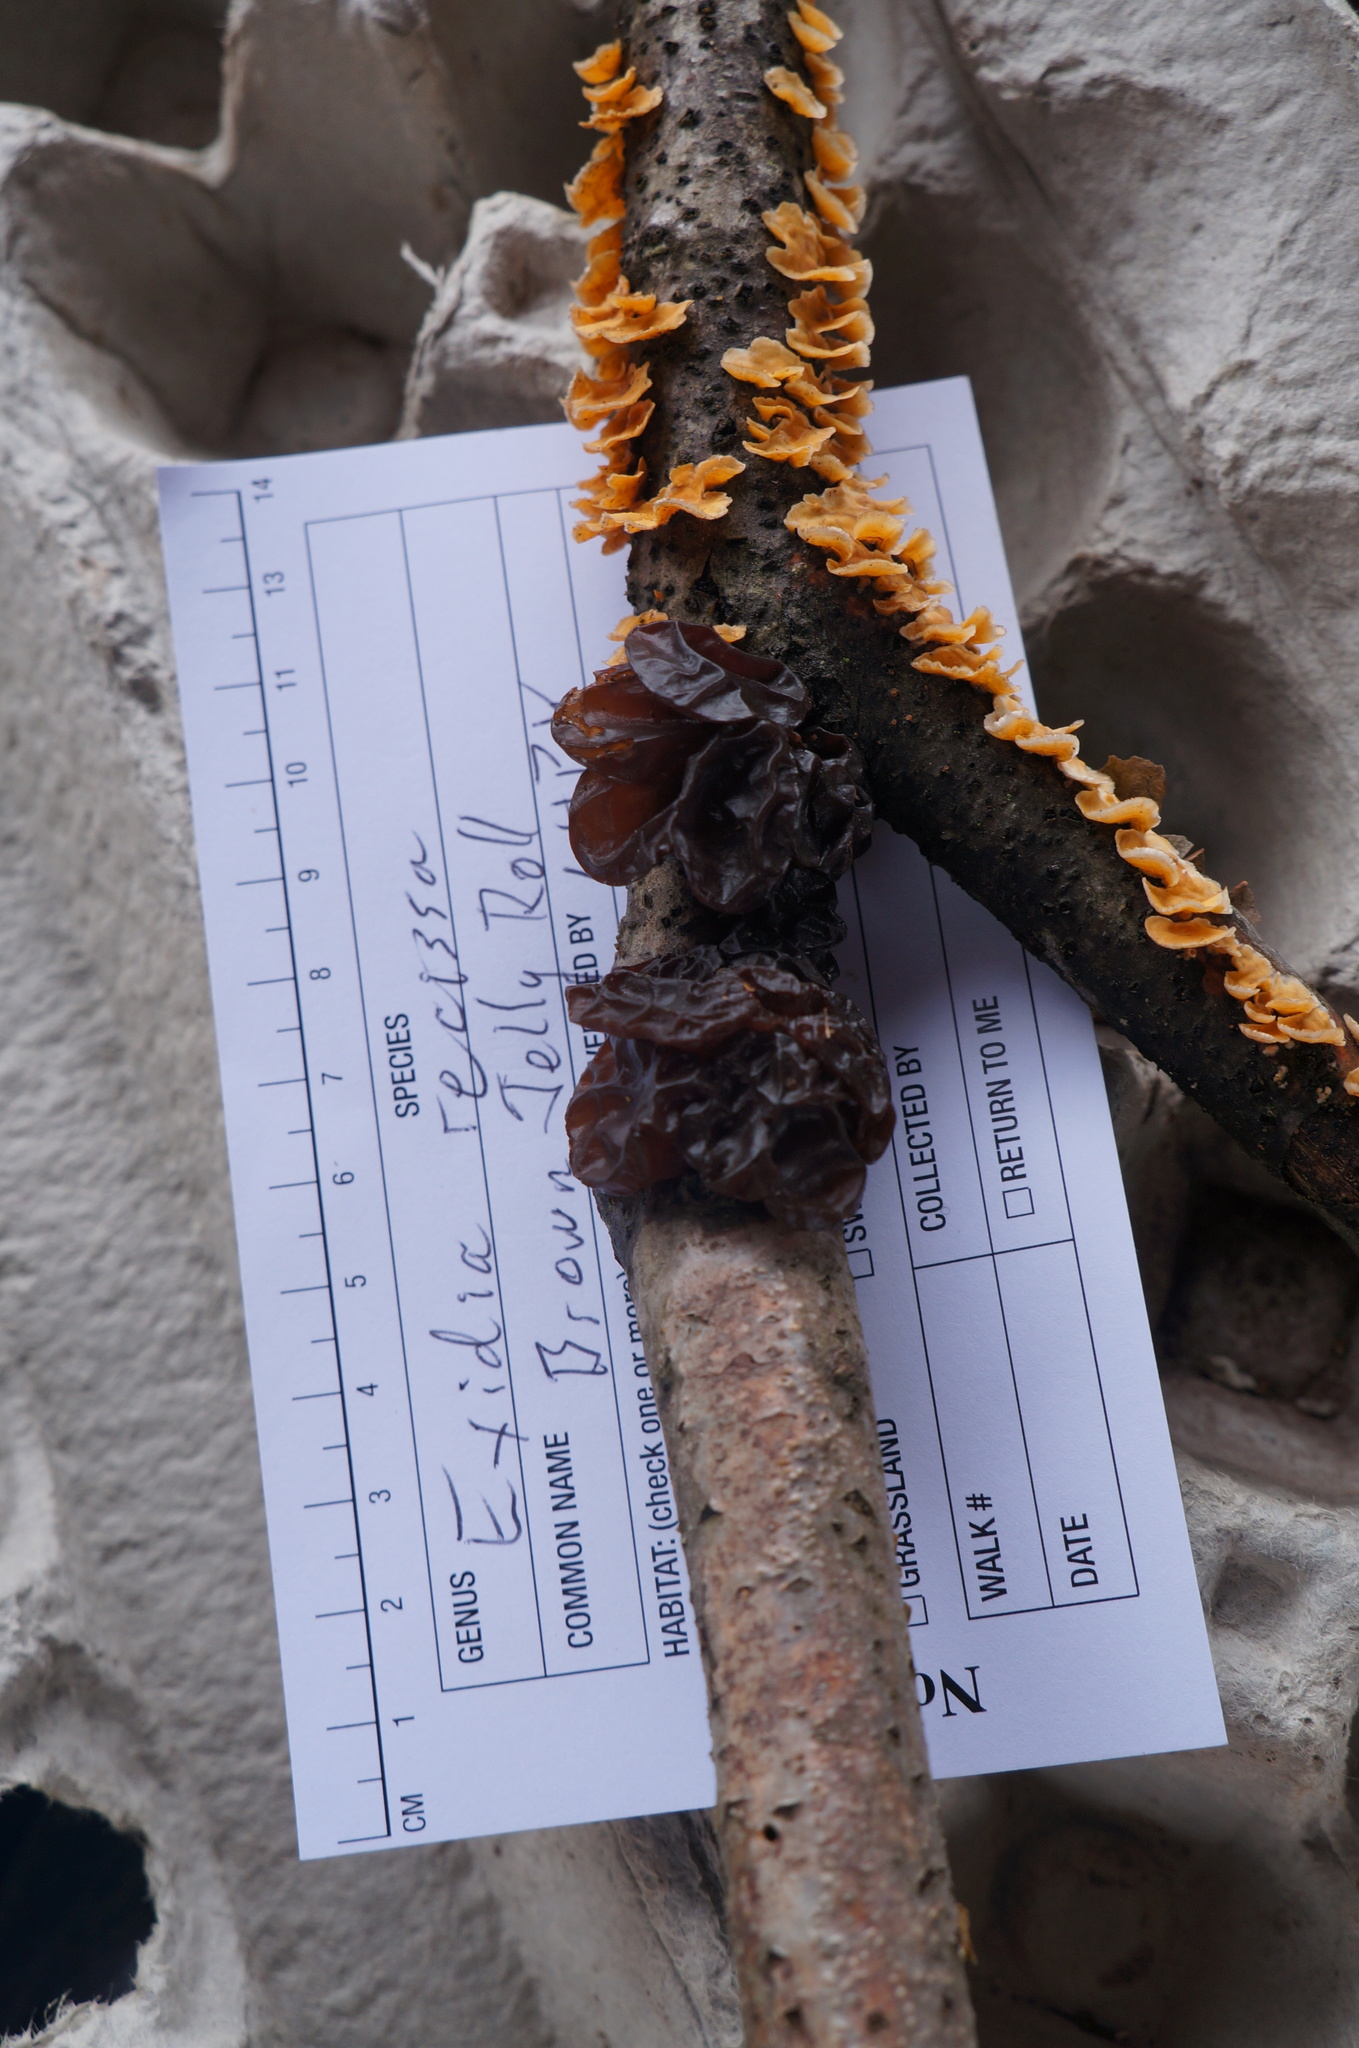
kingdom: Fungi
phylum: Basidiomycota
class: Agaricomycetes
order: Auriculariales
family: Auriculariaceae
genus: Exidia
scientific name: Exidia
